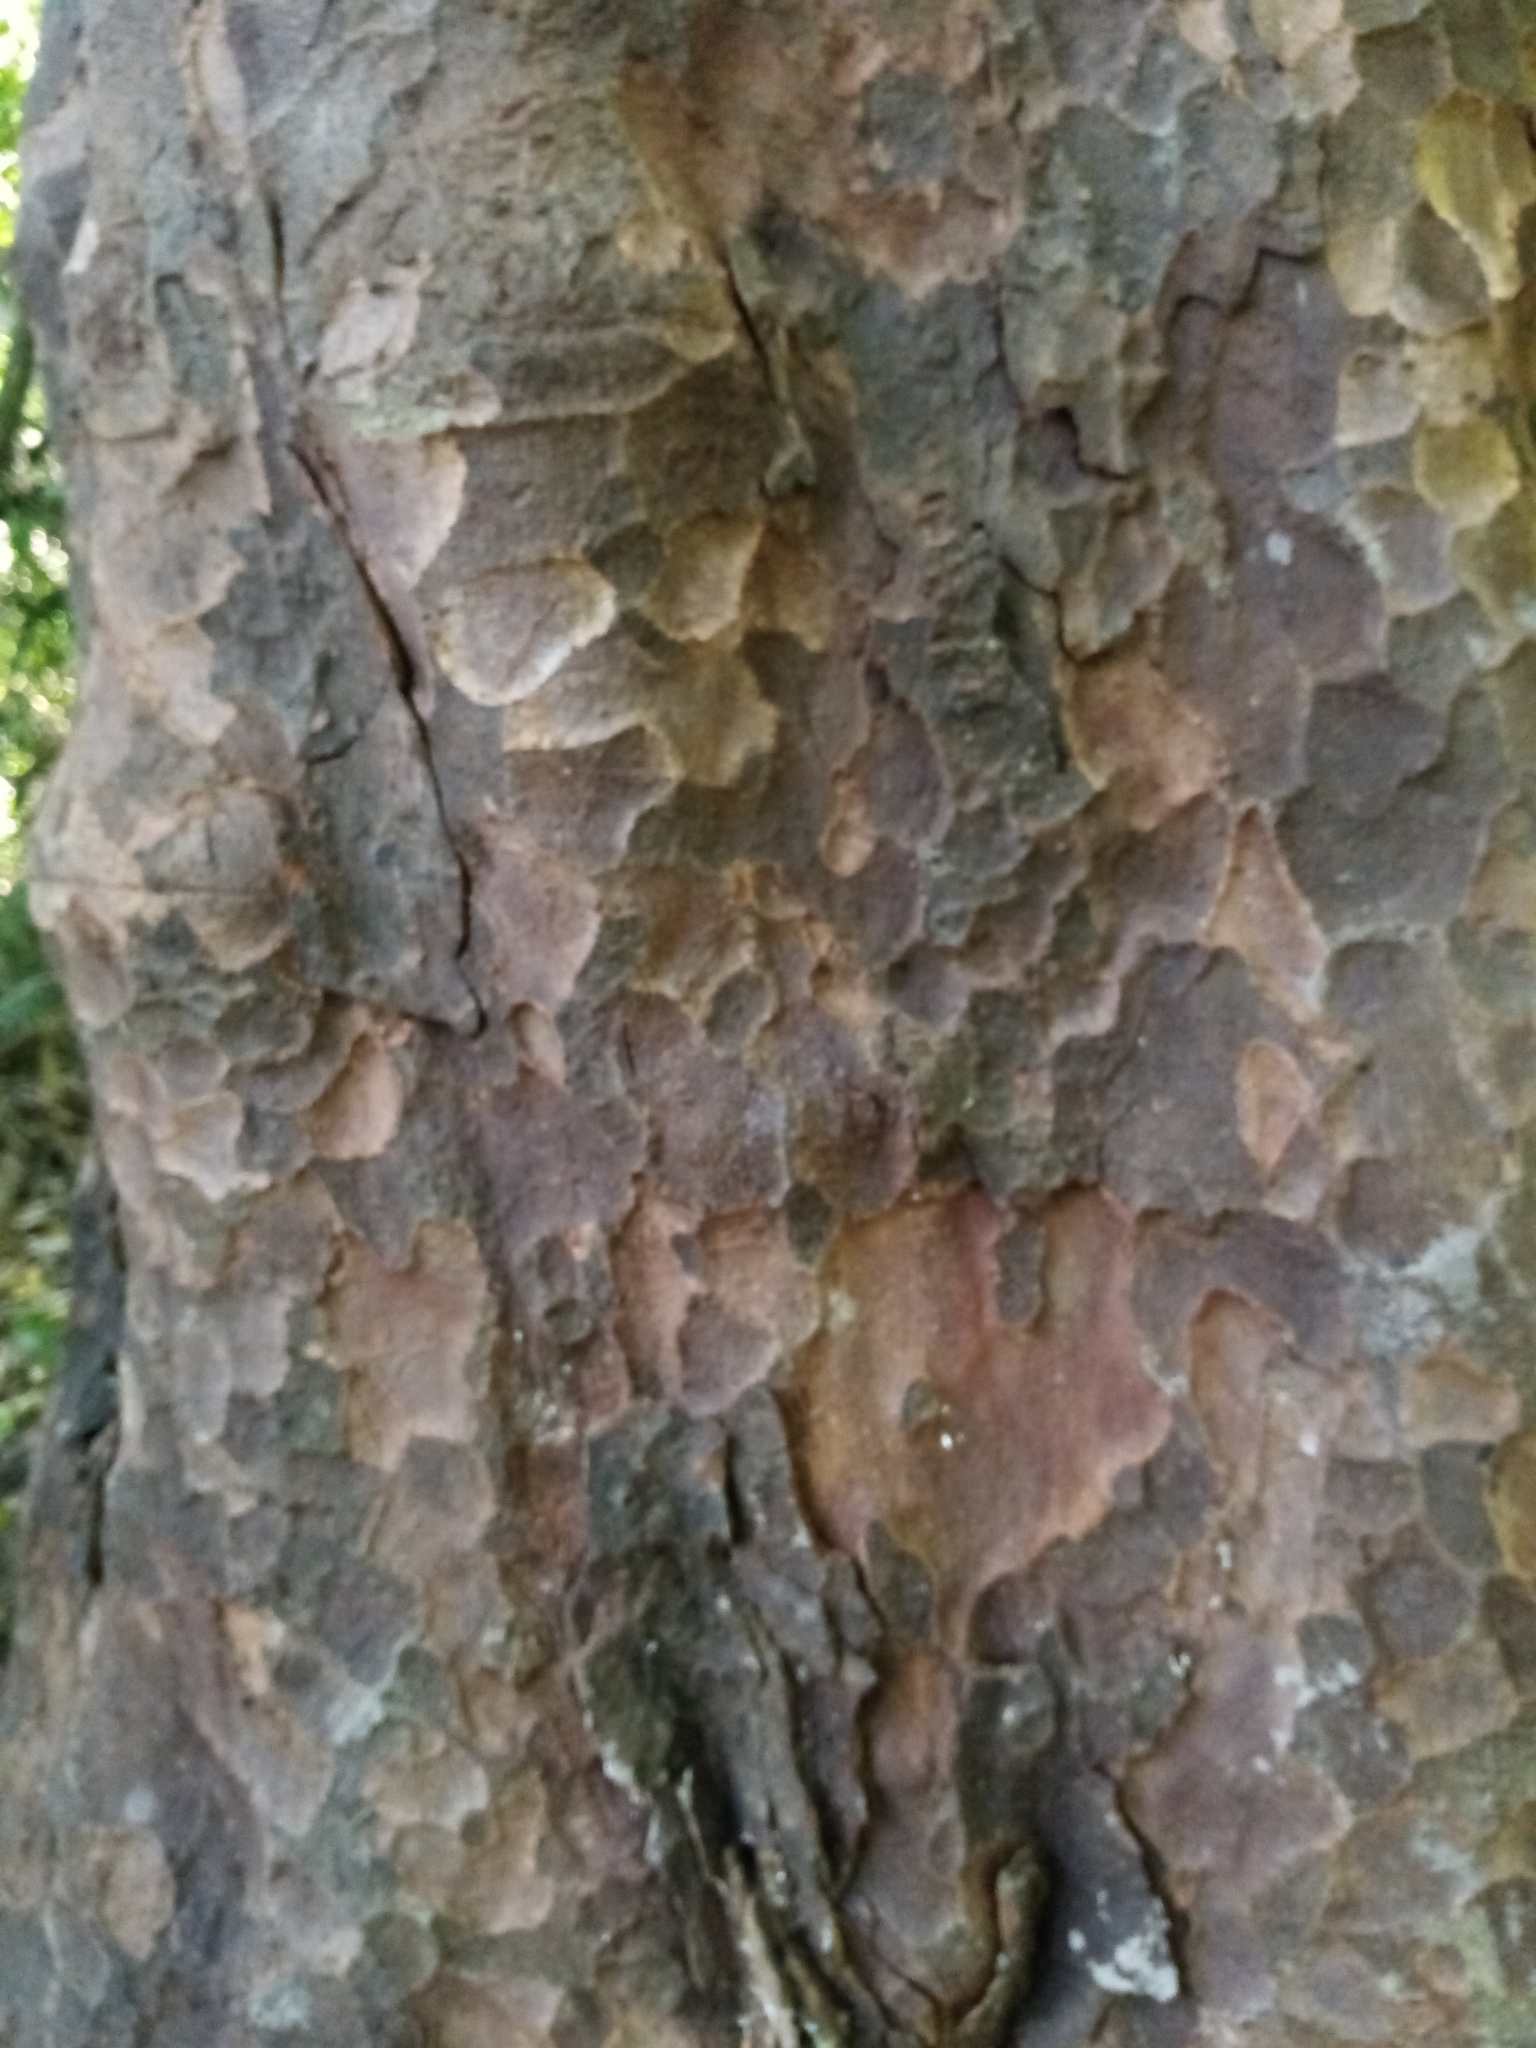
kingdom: Plantae
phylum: Tracheophyta
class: Pinopsida
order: Pinales
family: Podocarpaceae
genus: Prumnopitys
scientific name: Prumnopitys taxifolia
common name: Matai
